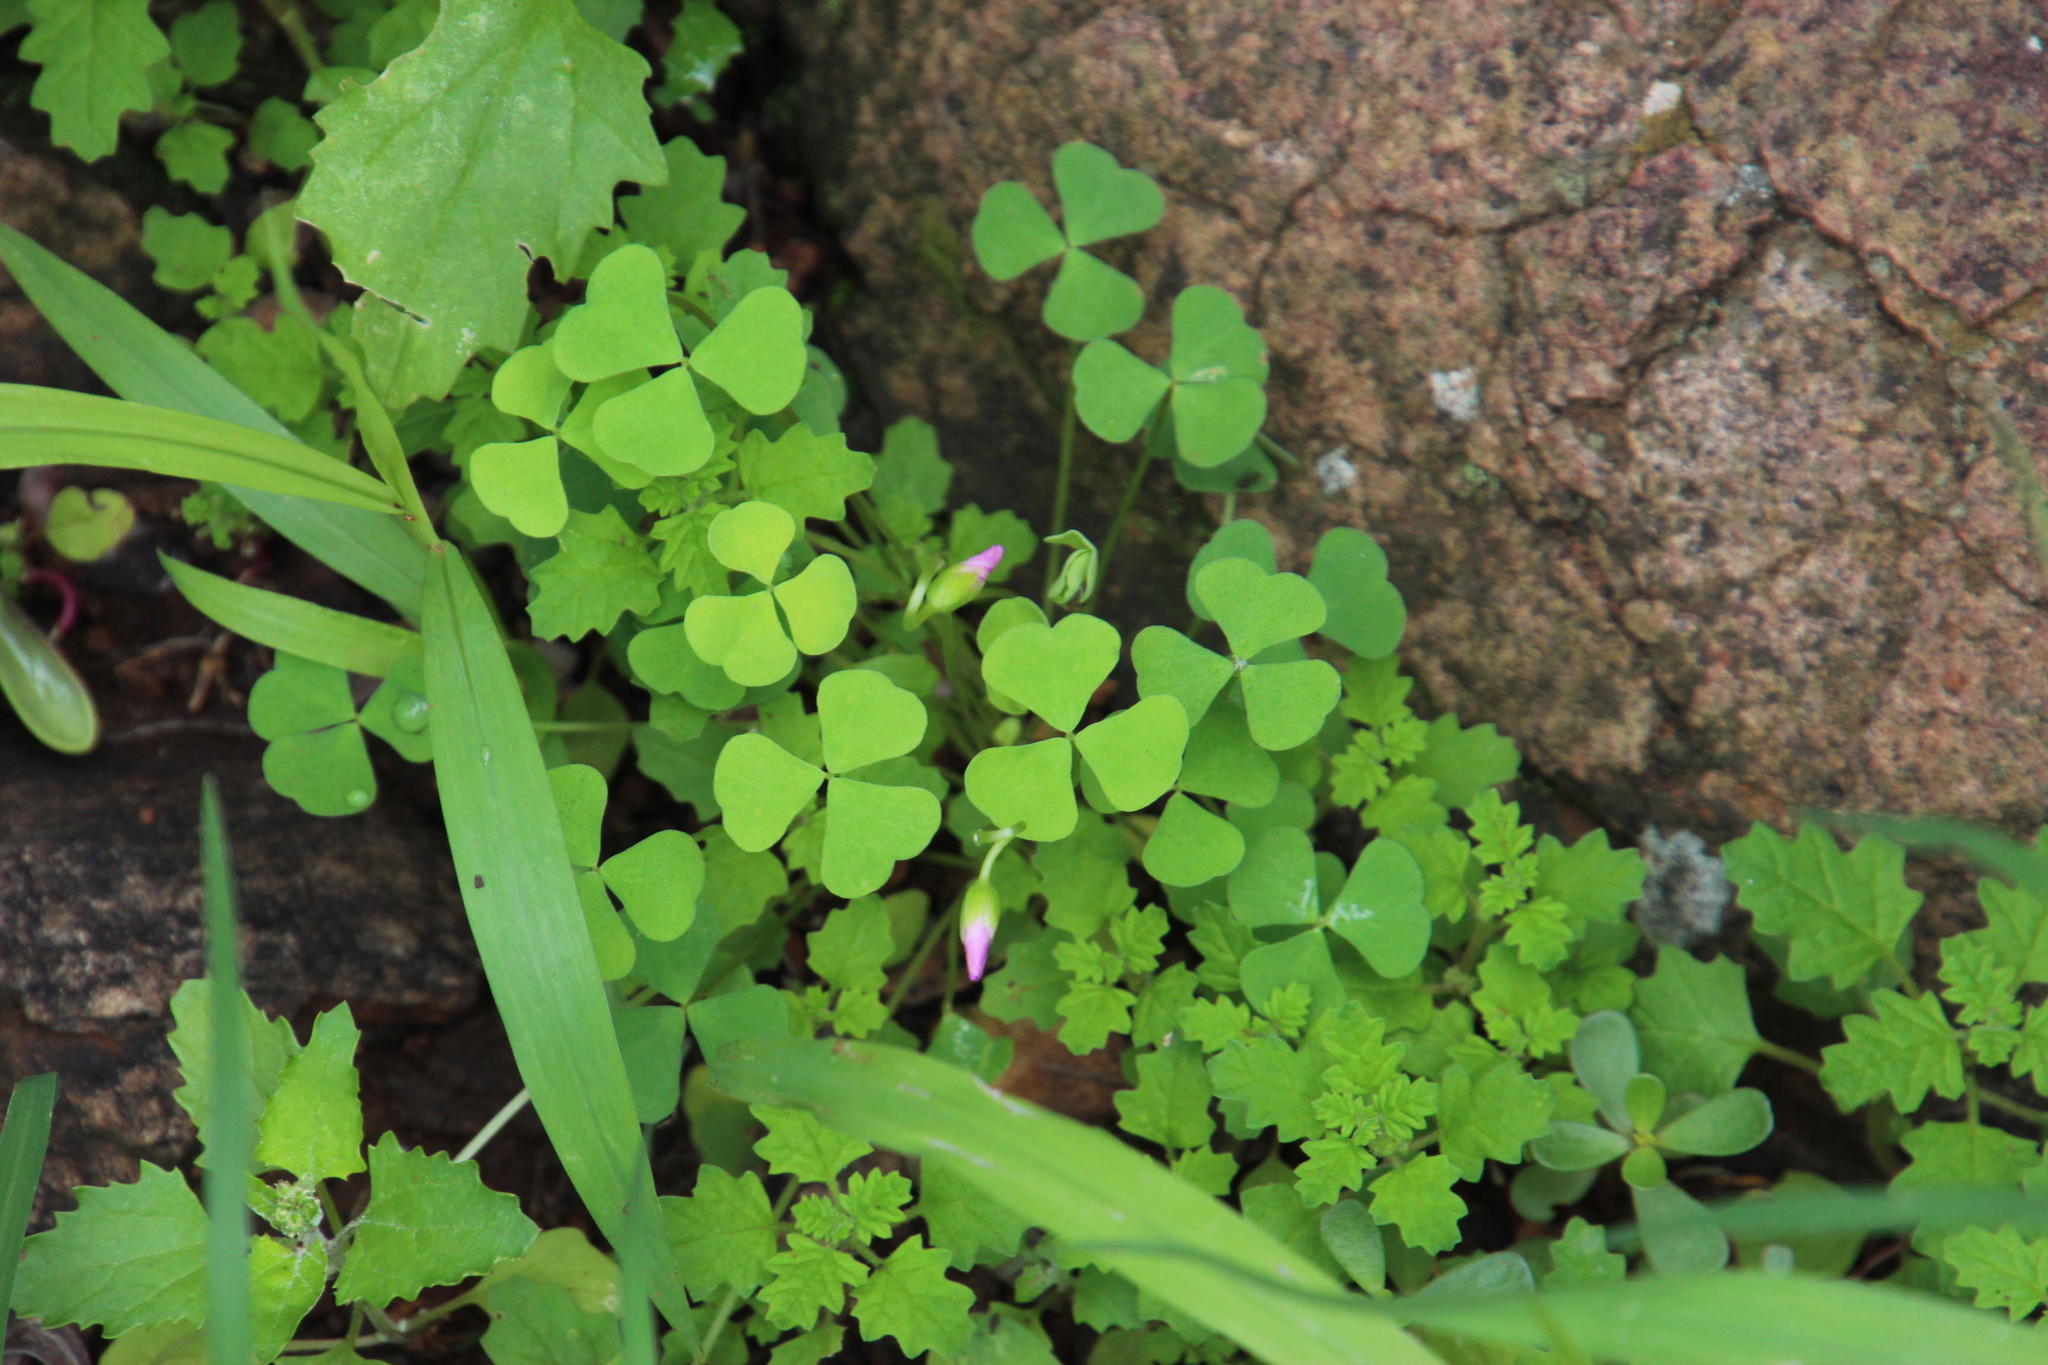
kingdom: Plantae
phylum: Tracheophyta
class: Magnoliopsida
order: Oxalidales
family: Oxalidaceae
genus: Oxalis
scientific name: Oxalis obliquifolia
